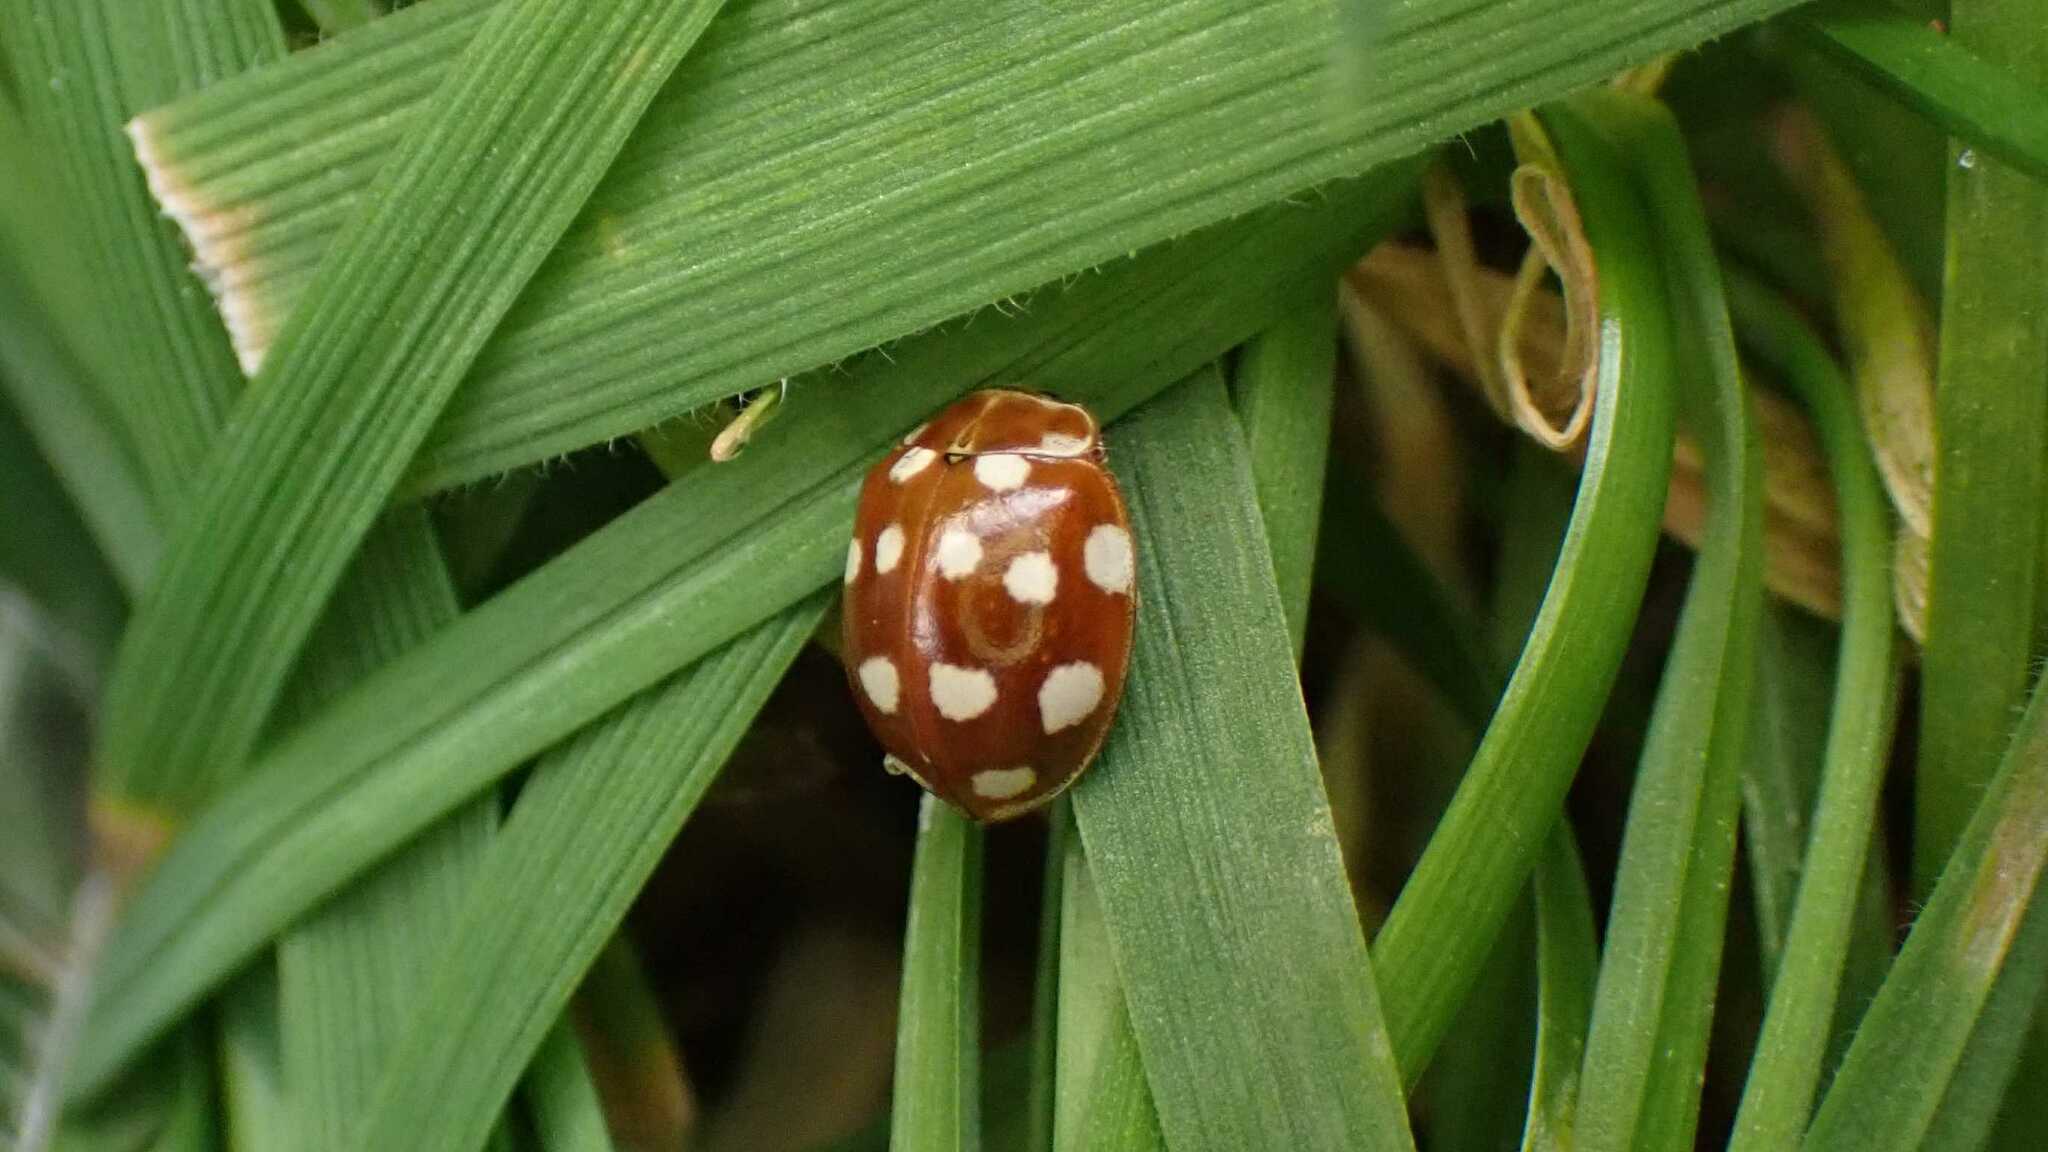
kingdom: Animalia
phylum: Arthropoda
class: Insecta
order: Coleoptera
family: Coccinellidae
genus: Calvia
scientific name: Calvia quatuordecimguttata
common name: Cream-spot ladybird
